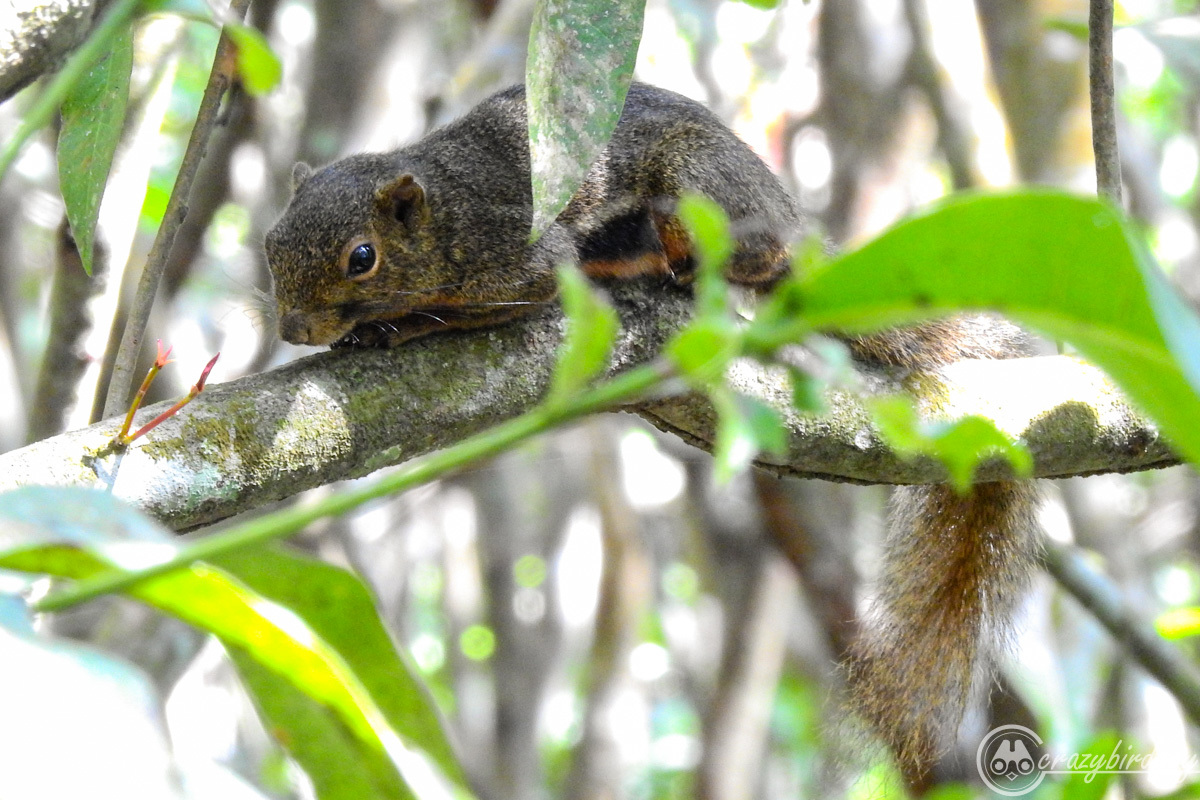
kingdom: Animalia
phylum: Chordata
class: Mammalia
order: Rodentia
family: Sciuridae
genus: Callosciurus
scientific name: Callosciurus notatus
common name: Plantain squirrel
